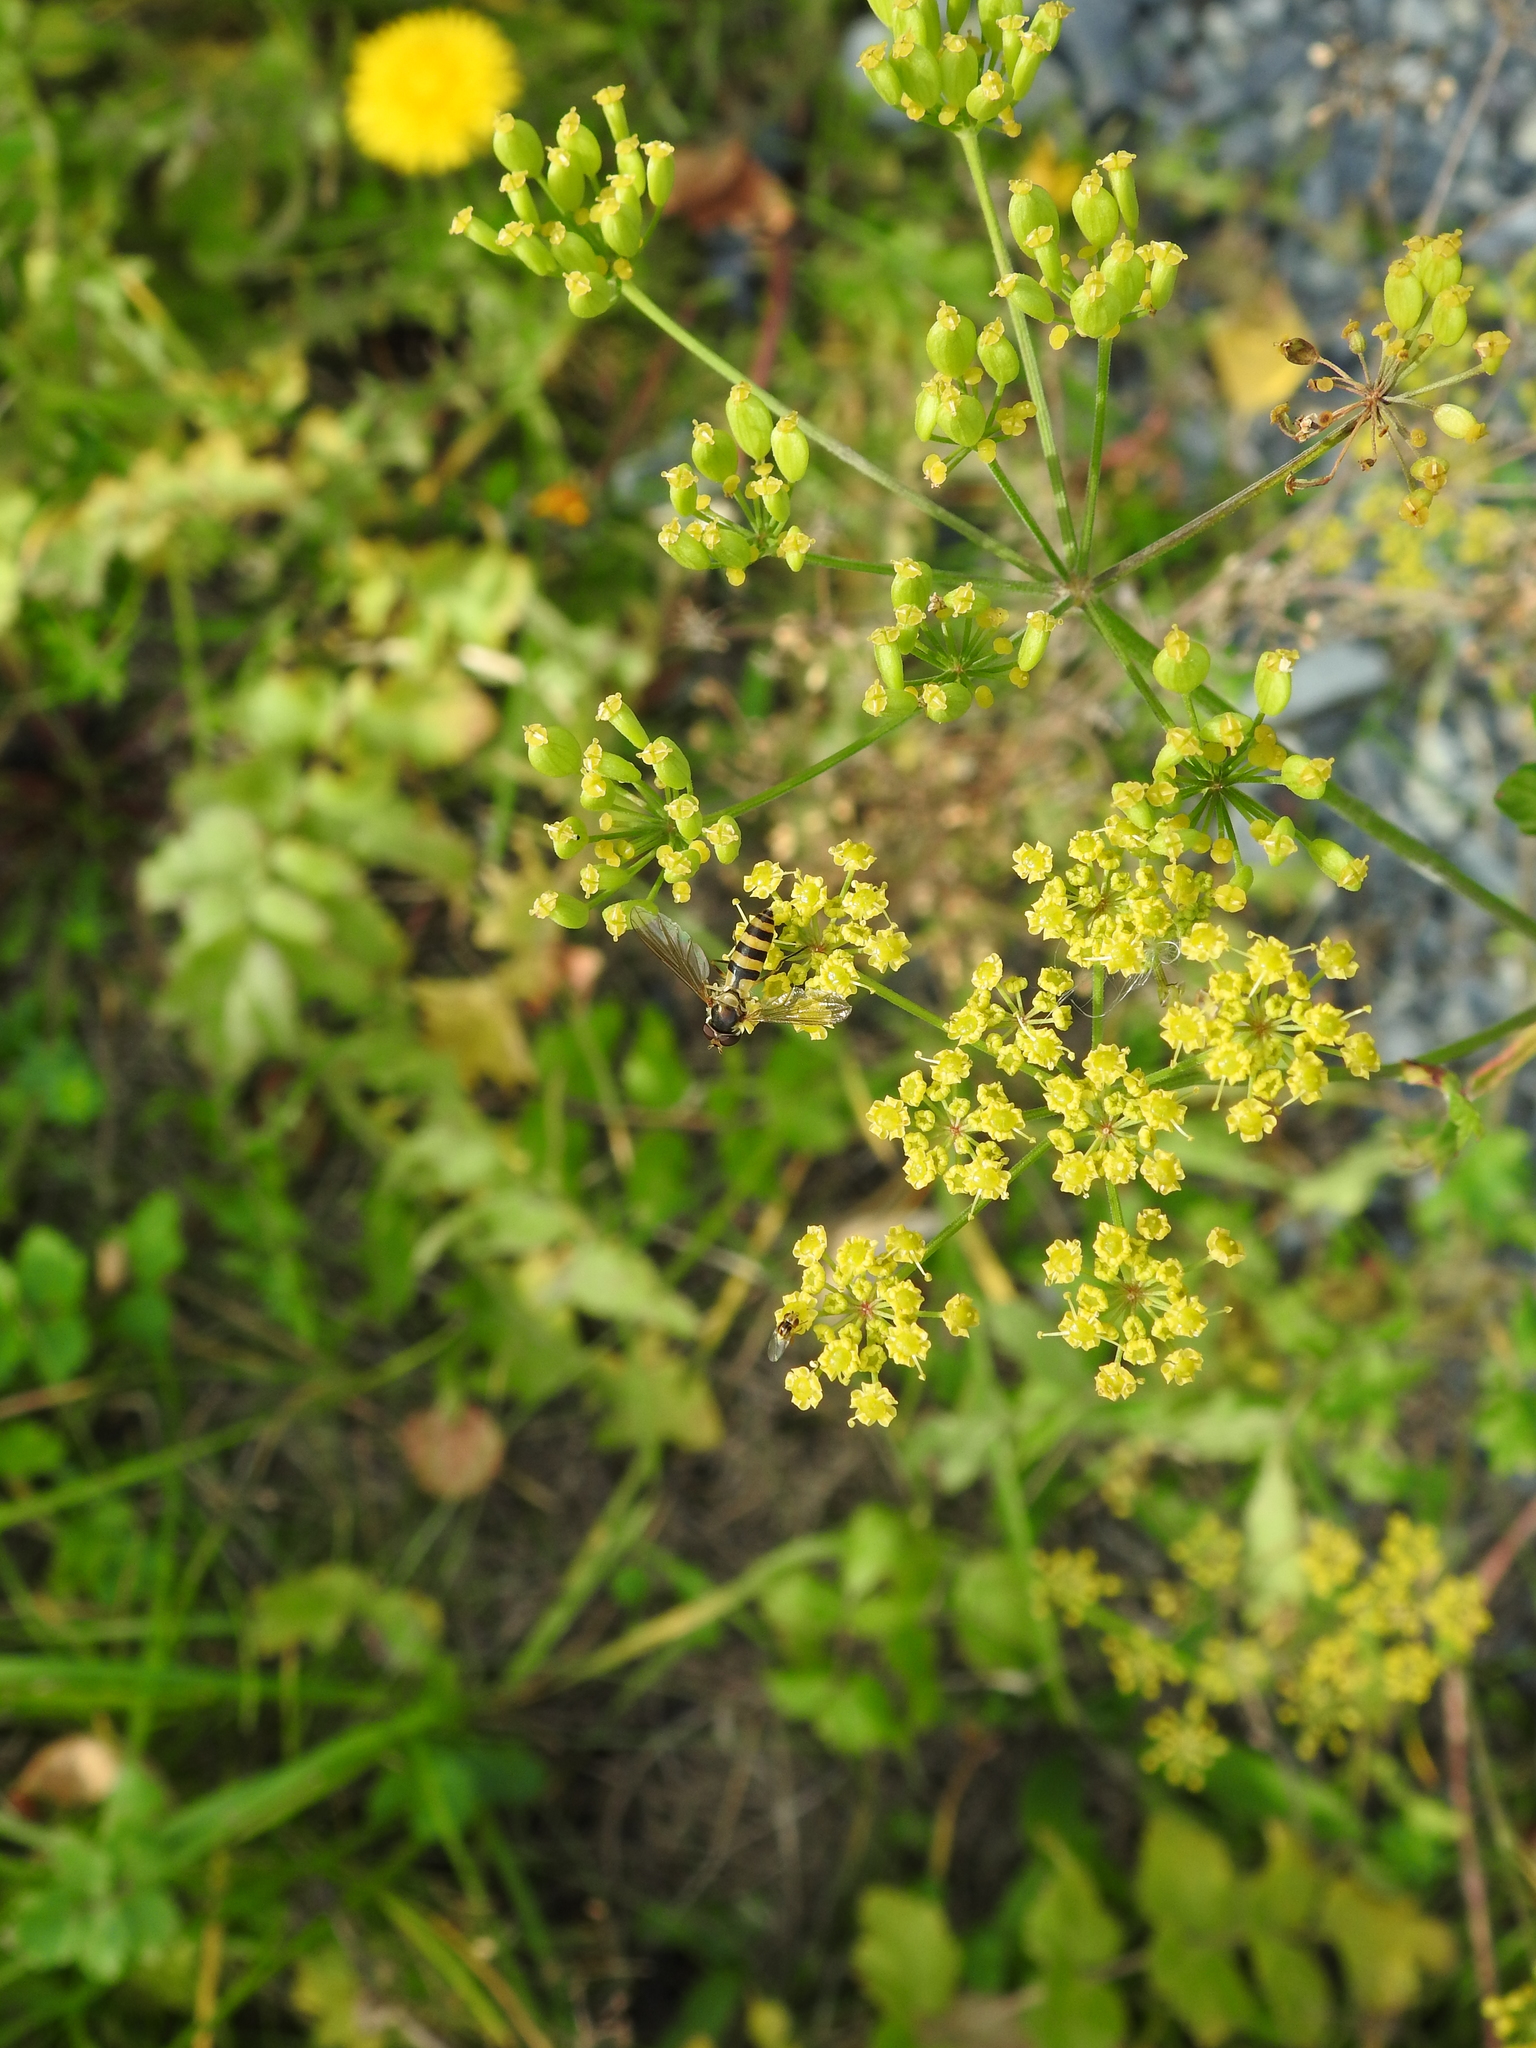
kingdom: Plantae
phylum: Tracheophyta
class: Magnoliopsida
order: Apiales
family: Apiaceae
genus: Pastinaca
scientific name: Pastinaca sativa
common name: Wild parsnip
